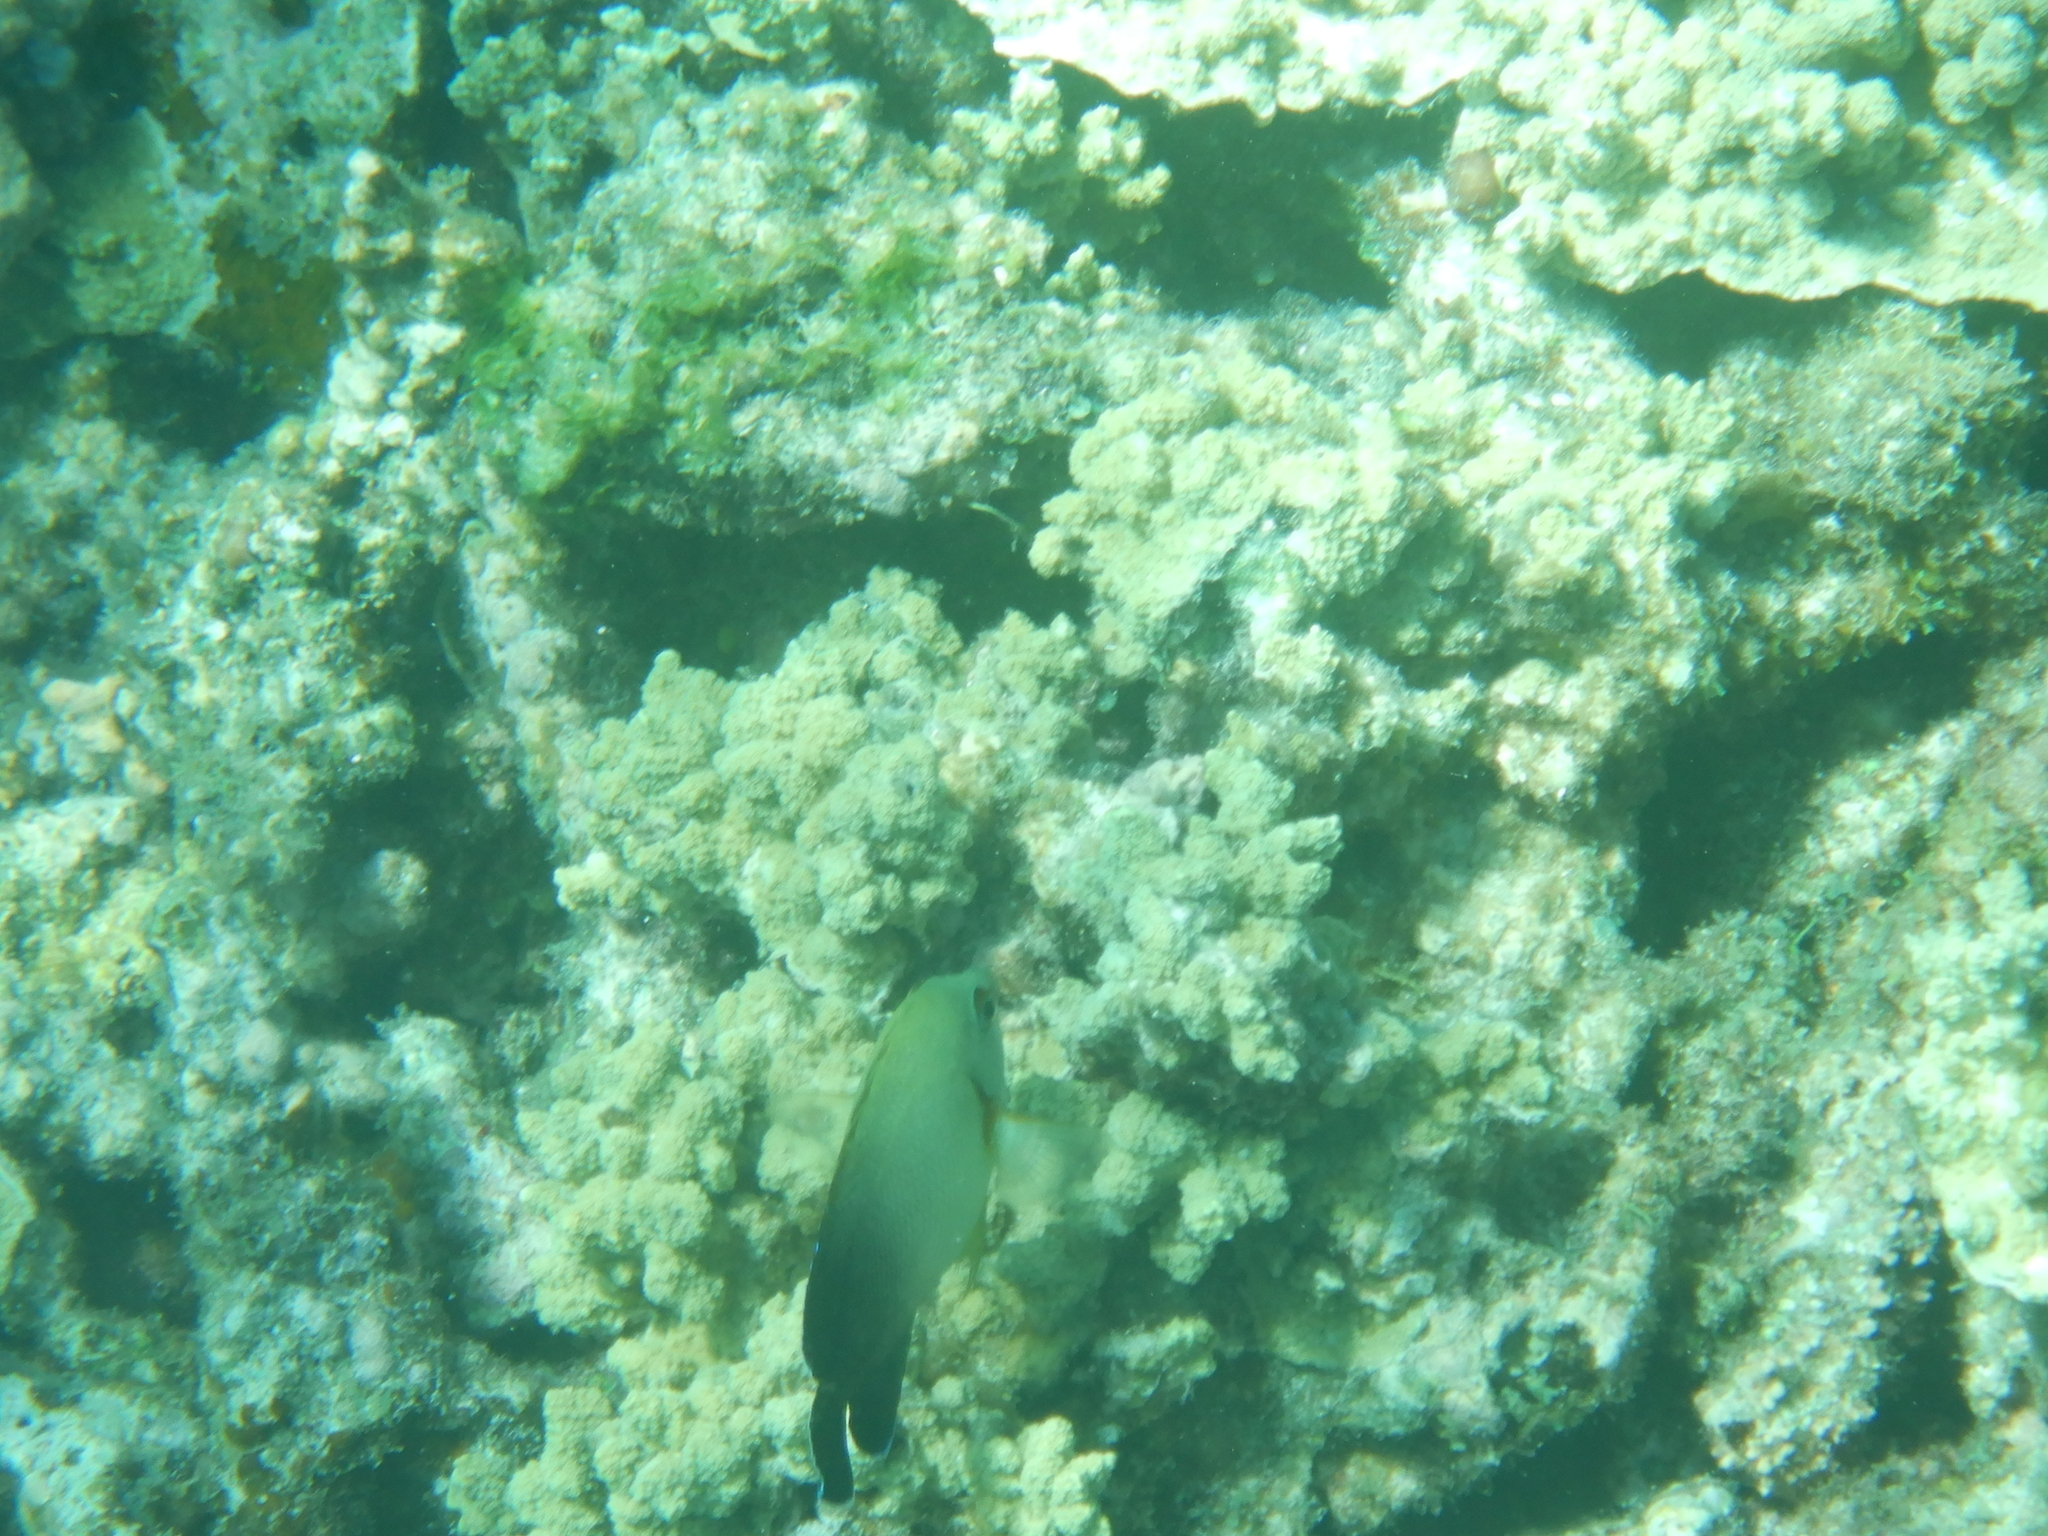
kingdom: Animalia
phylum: Chordata
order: Perciformes
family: Pomacanthidae
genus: Centropyge
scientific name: Centropyge vrolikii
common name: Pearlscale angelfish
